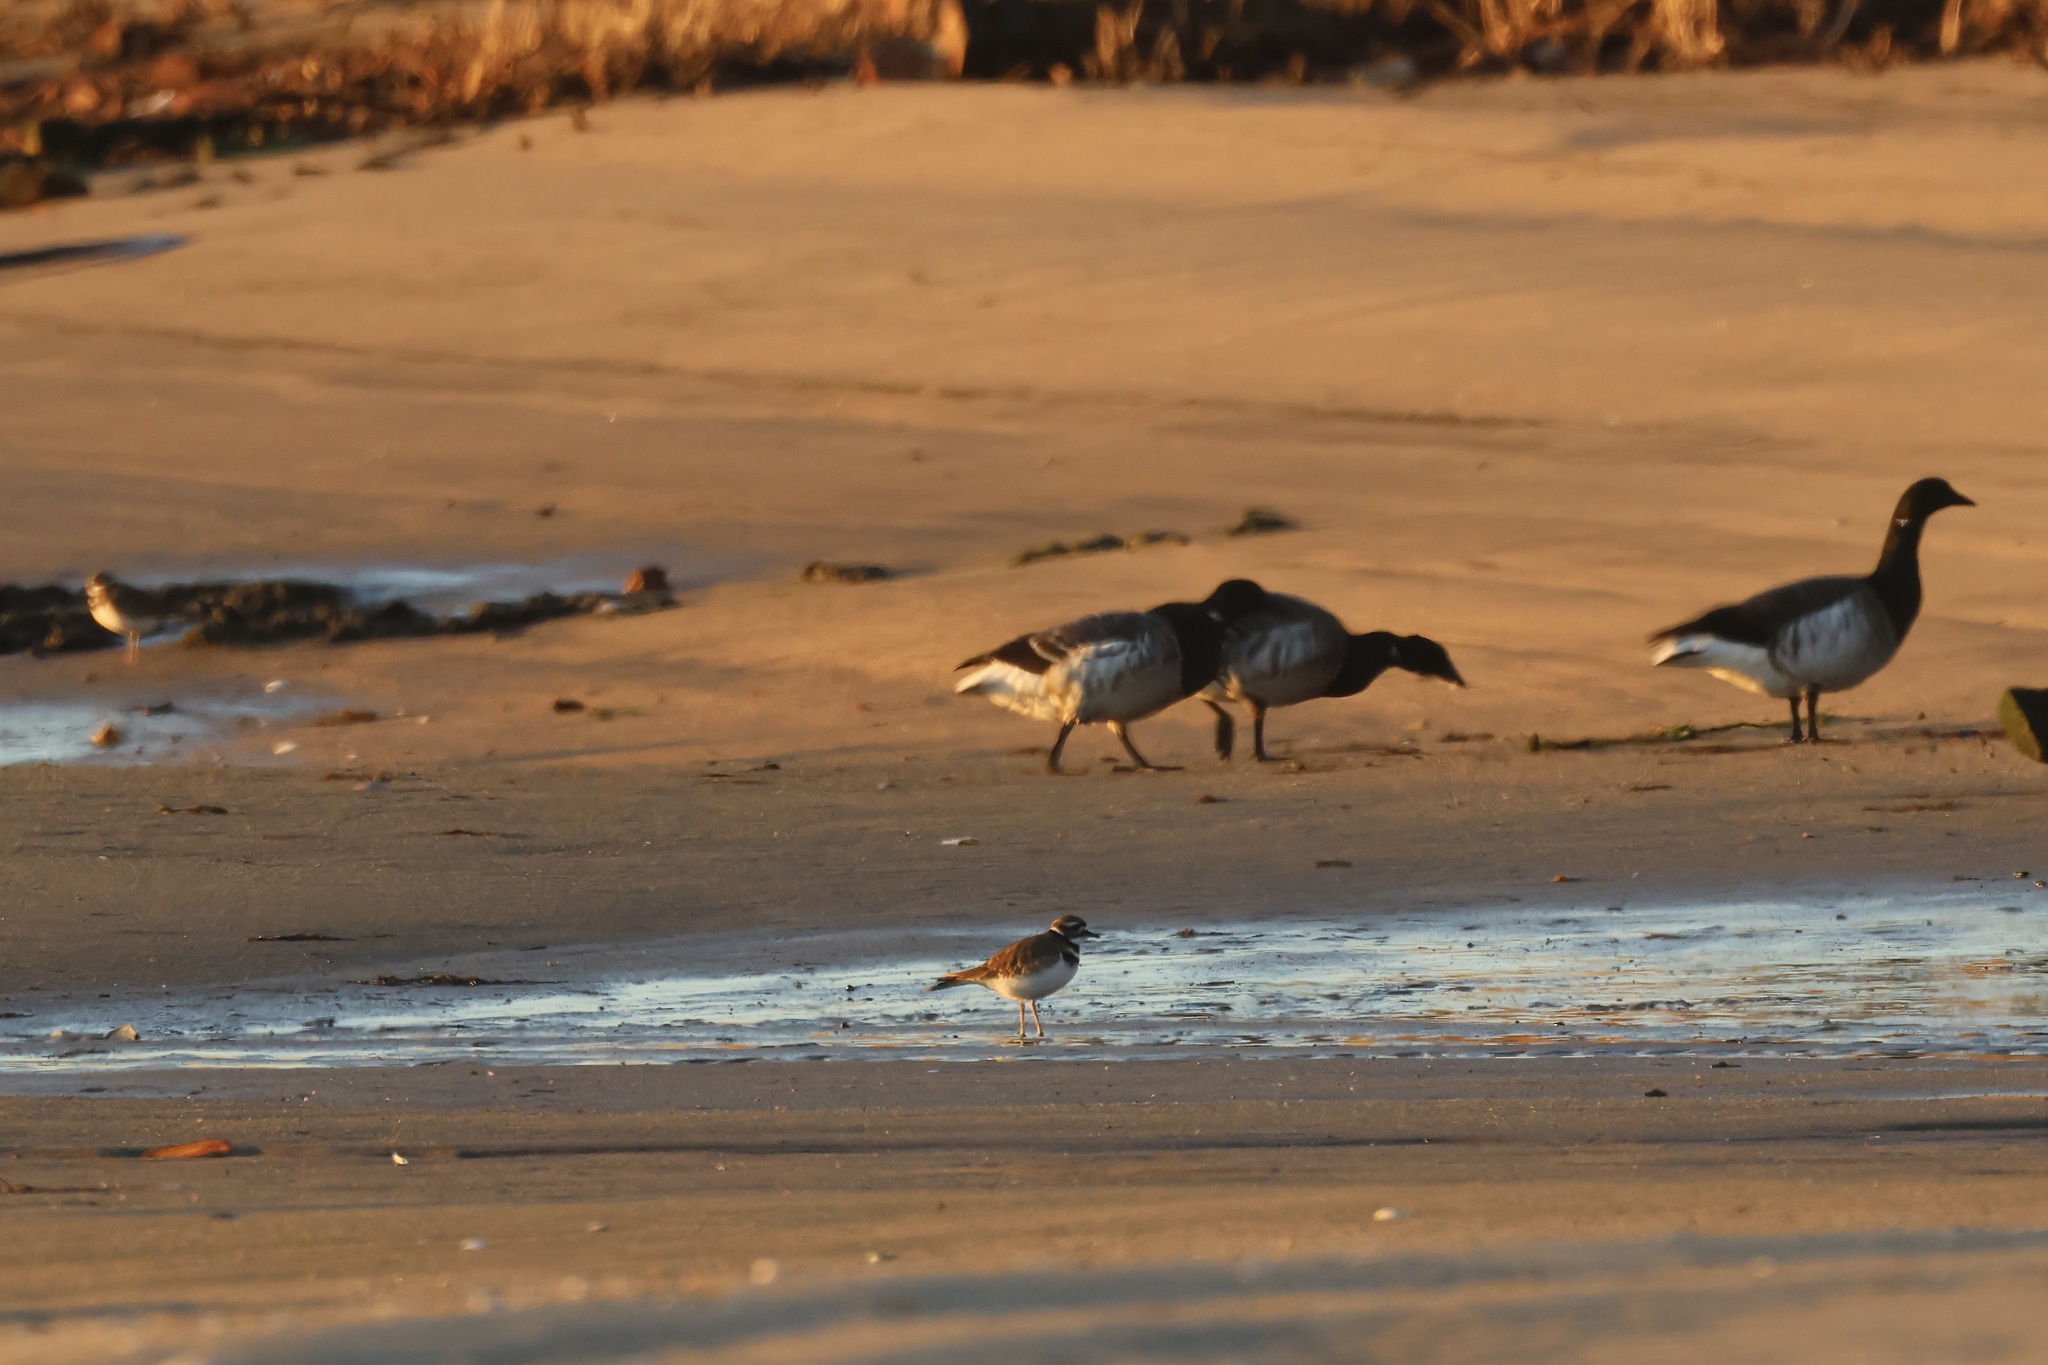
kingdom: Animalia
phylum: Chordata
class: Aves
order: Charadriiformes
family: Charadriidae
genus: Charadrius
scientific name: Charadrius vociferus
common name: Killdeer
